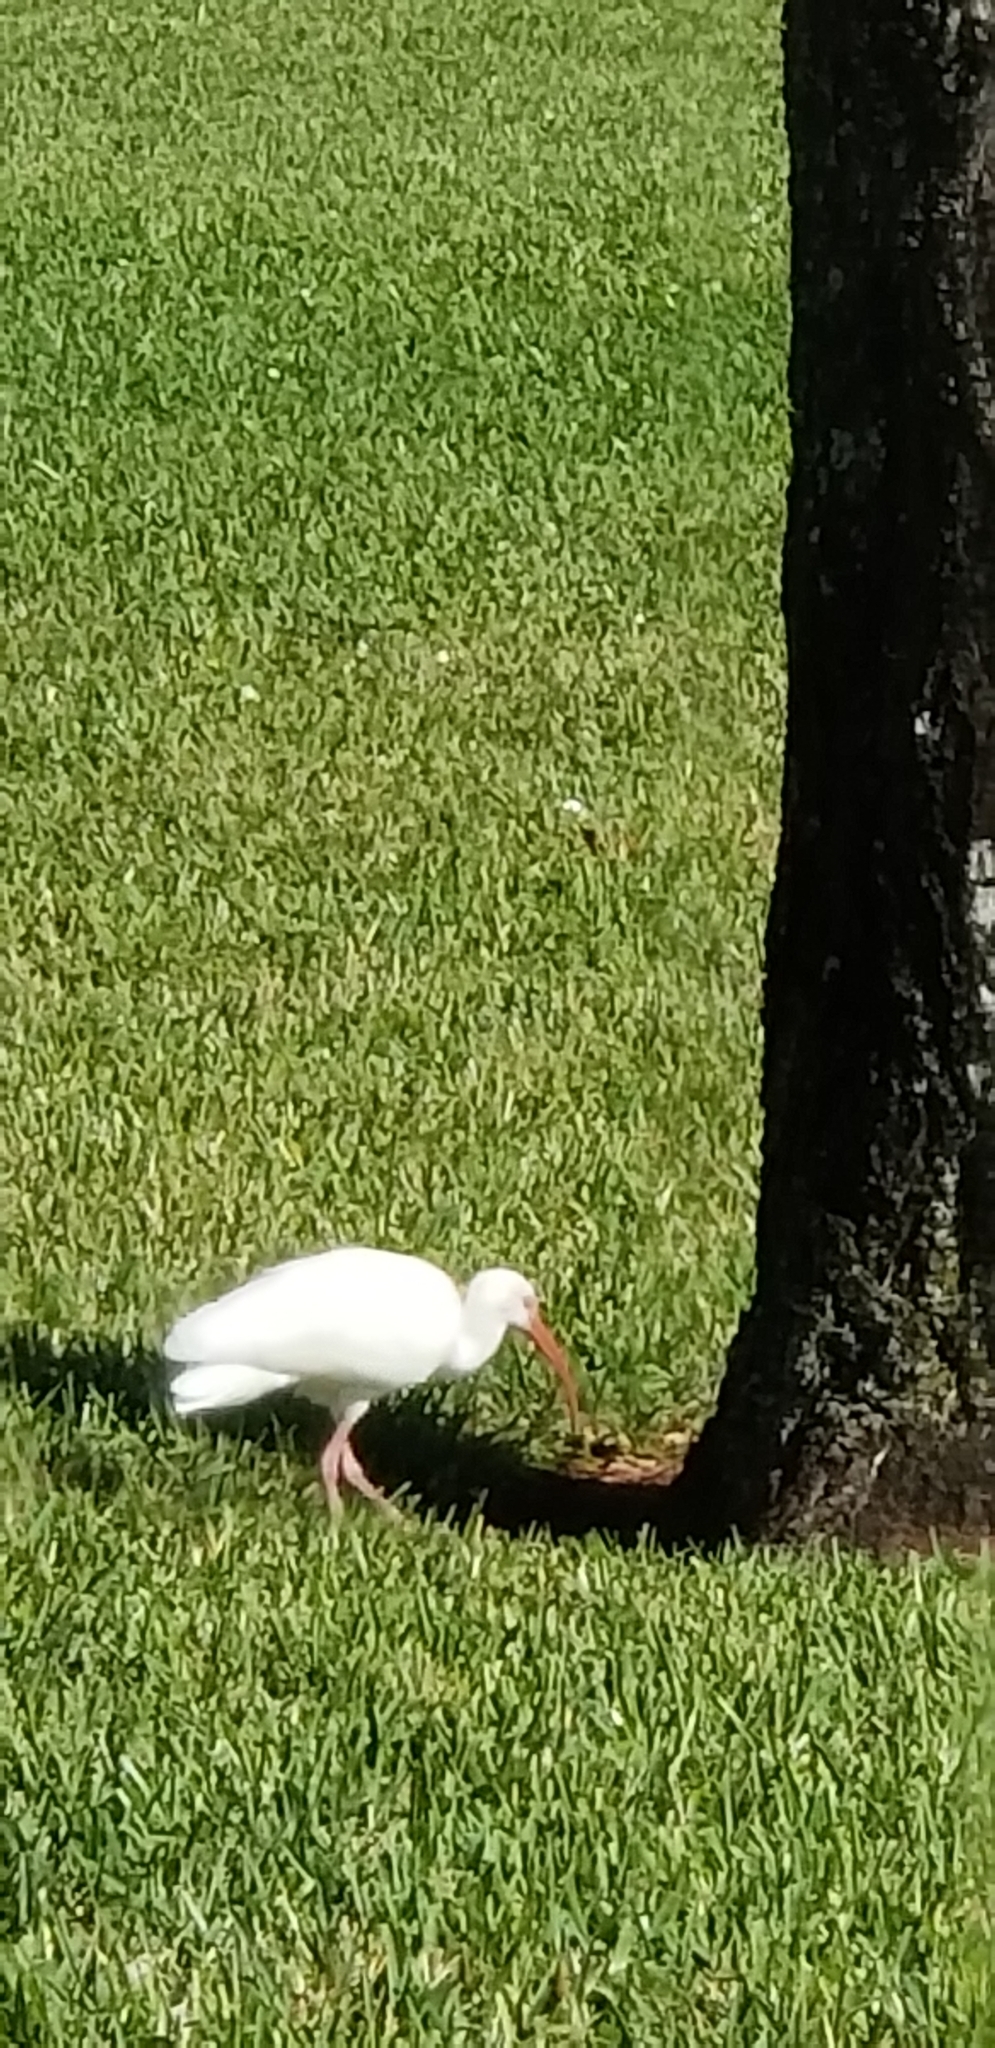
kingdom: Animalia
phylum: Chordata
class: Aves
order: Pelecaniformes
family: Threskiornithidae
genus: Eudocimus
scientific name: Eudocimus albus
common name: White ibis
